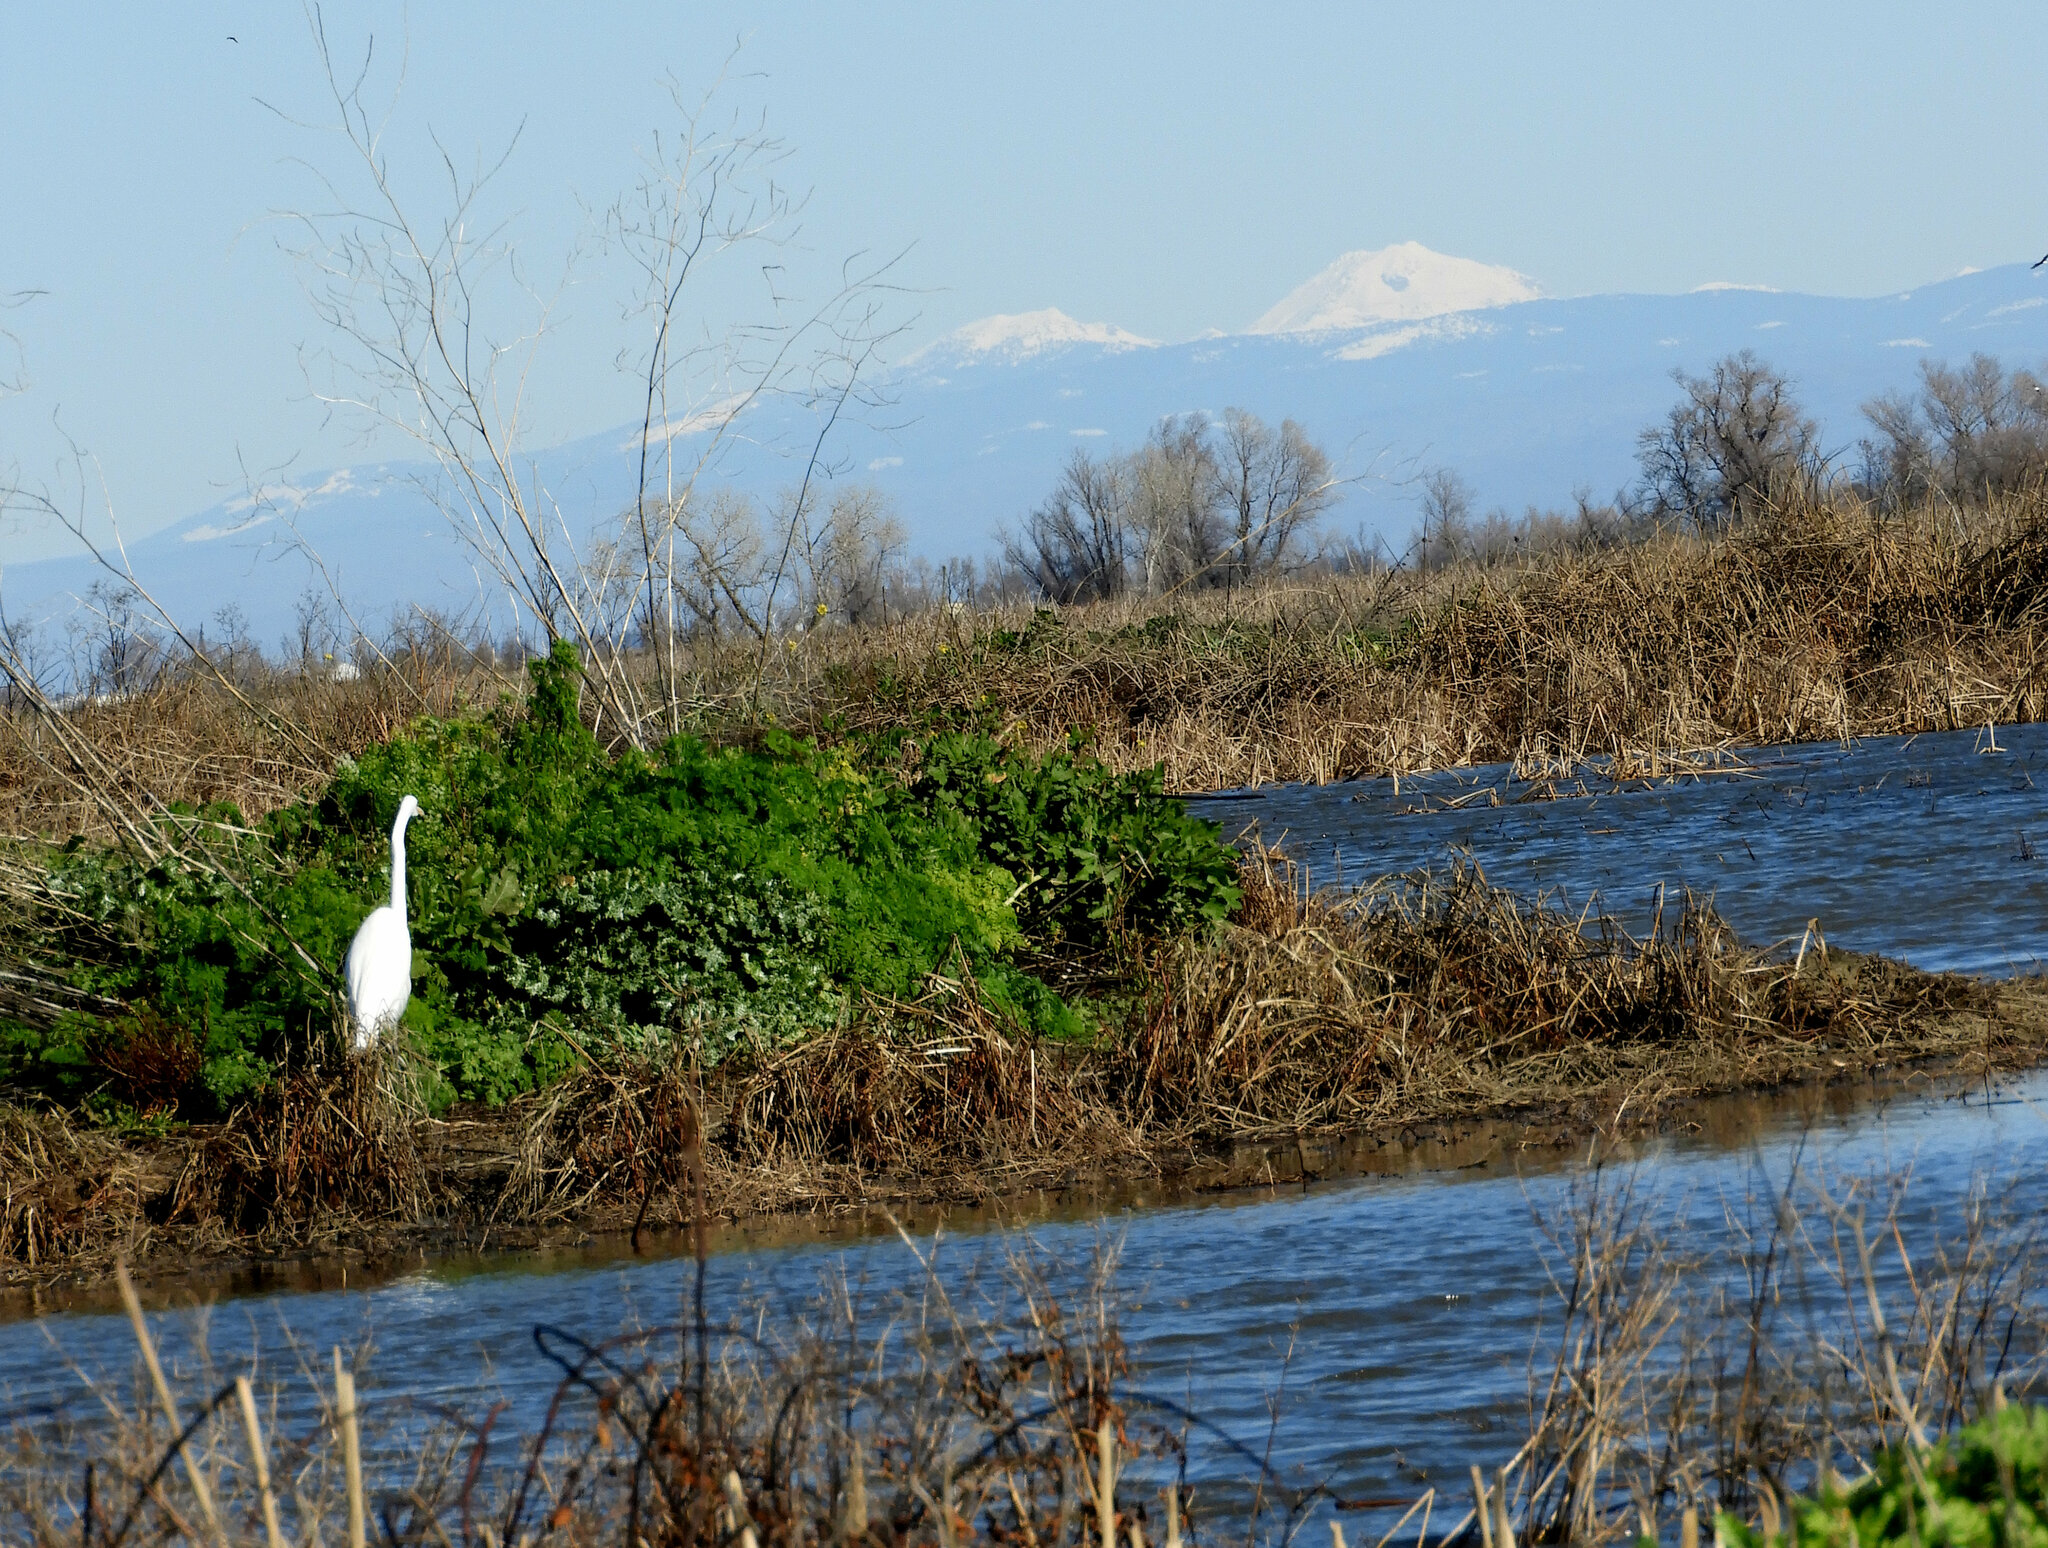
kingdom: Animalia
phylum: Chordata
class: Aves
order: Pelecaniformes
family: Ardeidae
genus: Ardea
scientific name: Ardea alba
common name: Great egret
